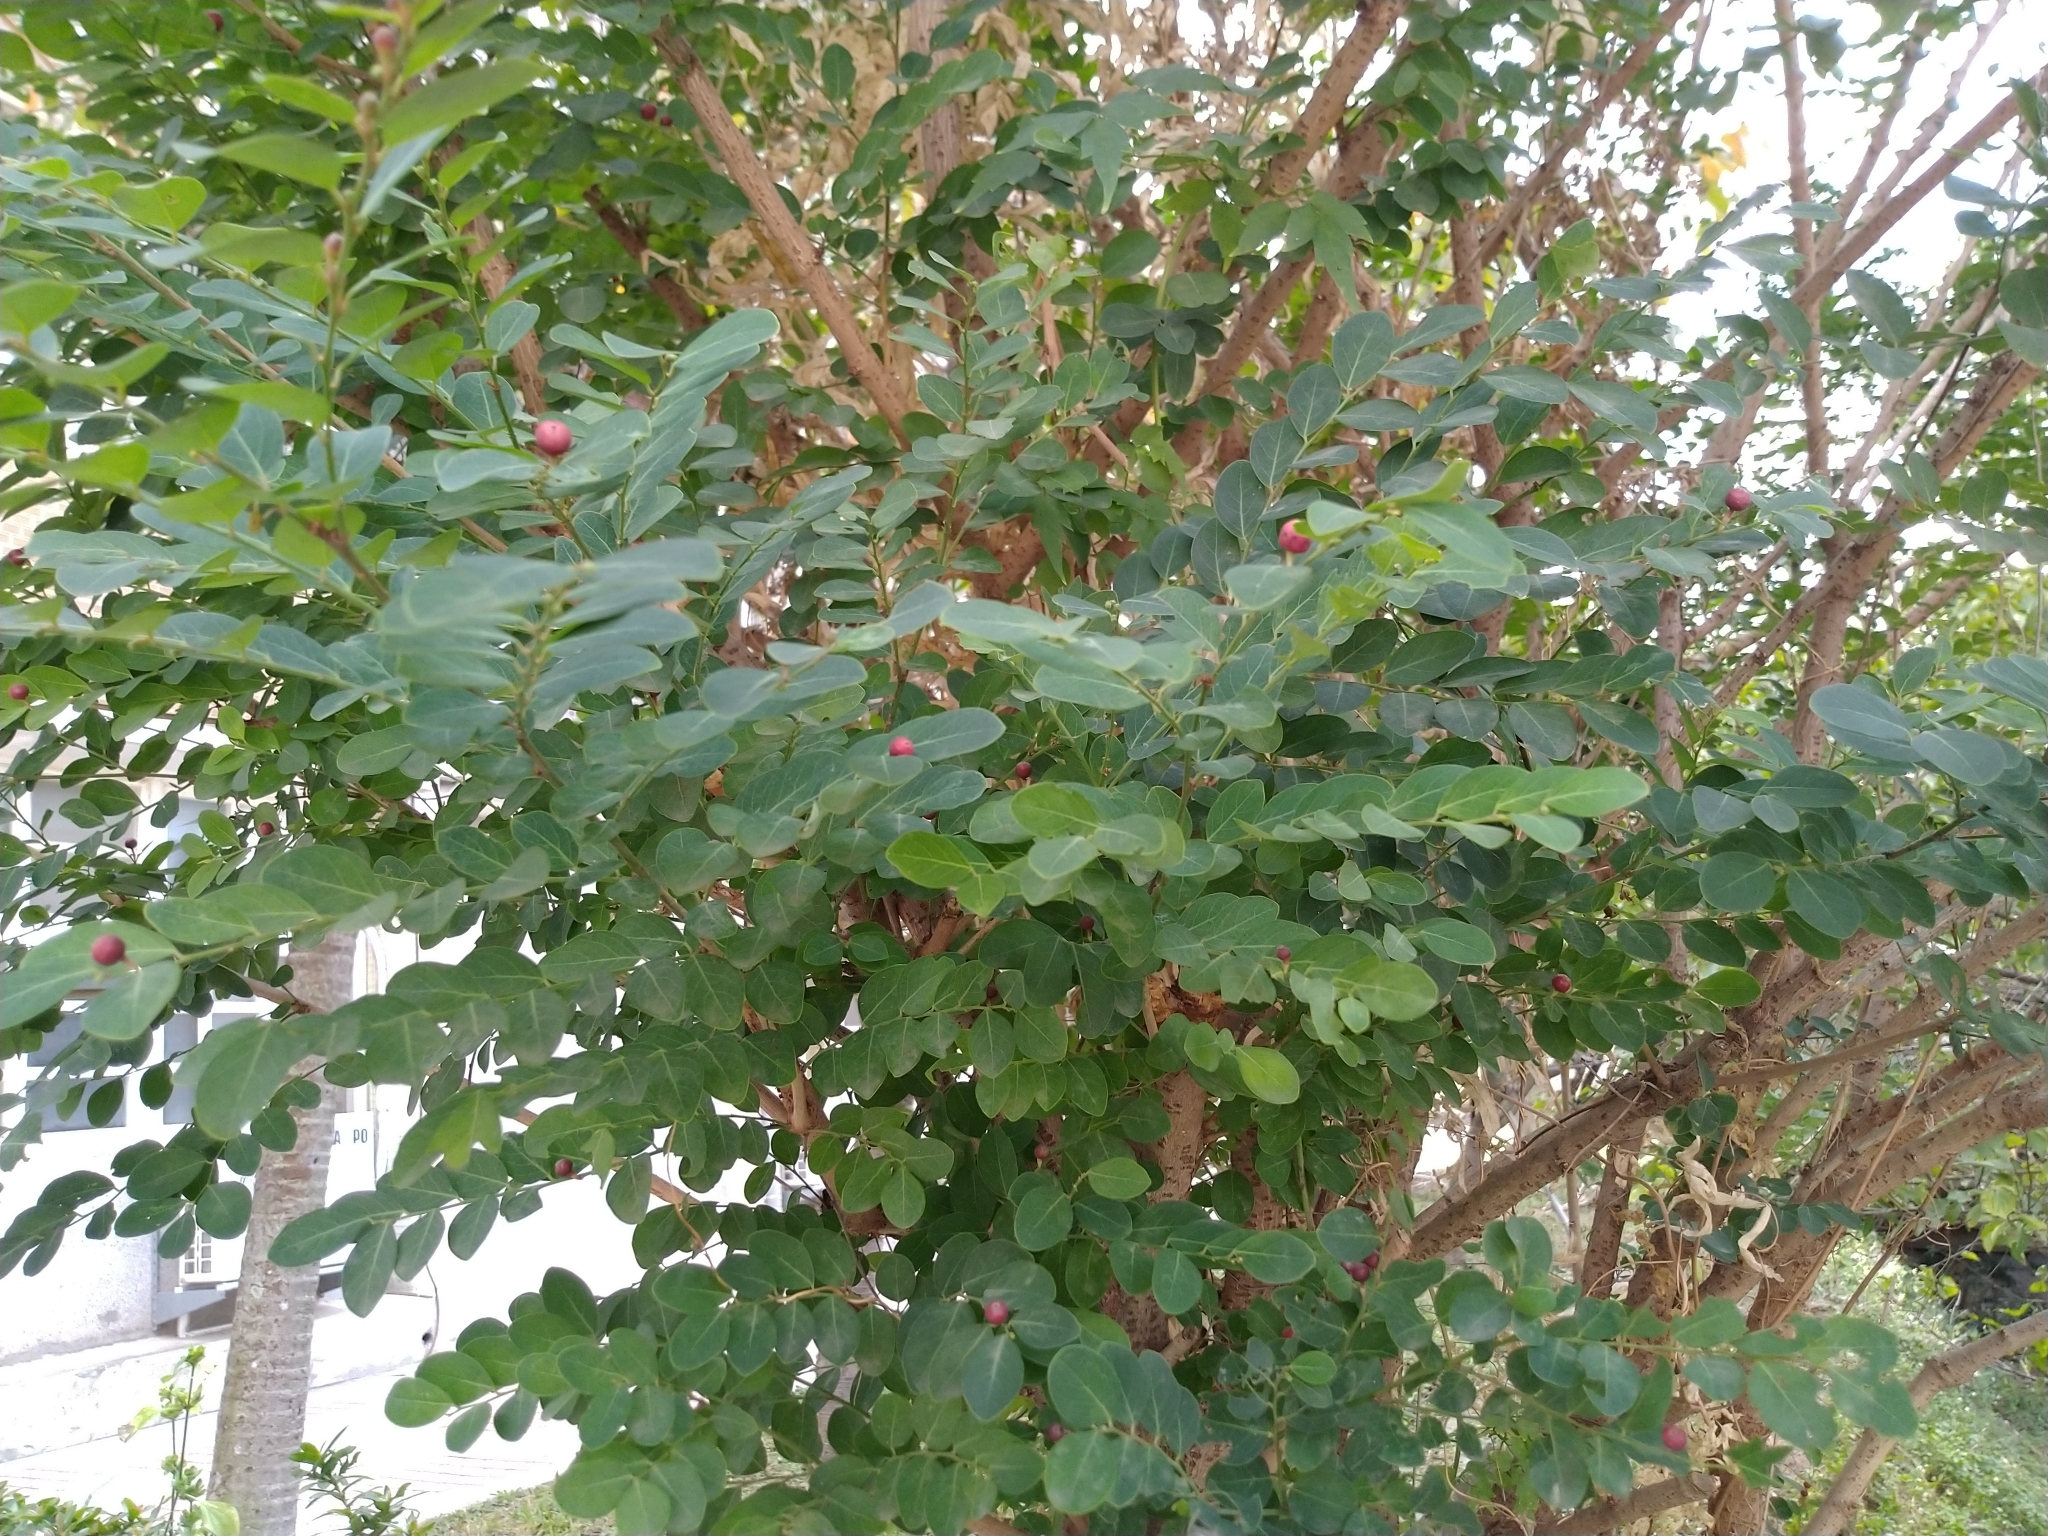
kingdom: Plantae
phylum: Tracheophyta
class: Magnoliopsida
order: Malpighiales
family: Phyllanthaceae
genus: Breynia
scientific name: Breynia vitis-idaea
